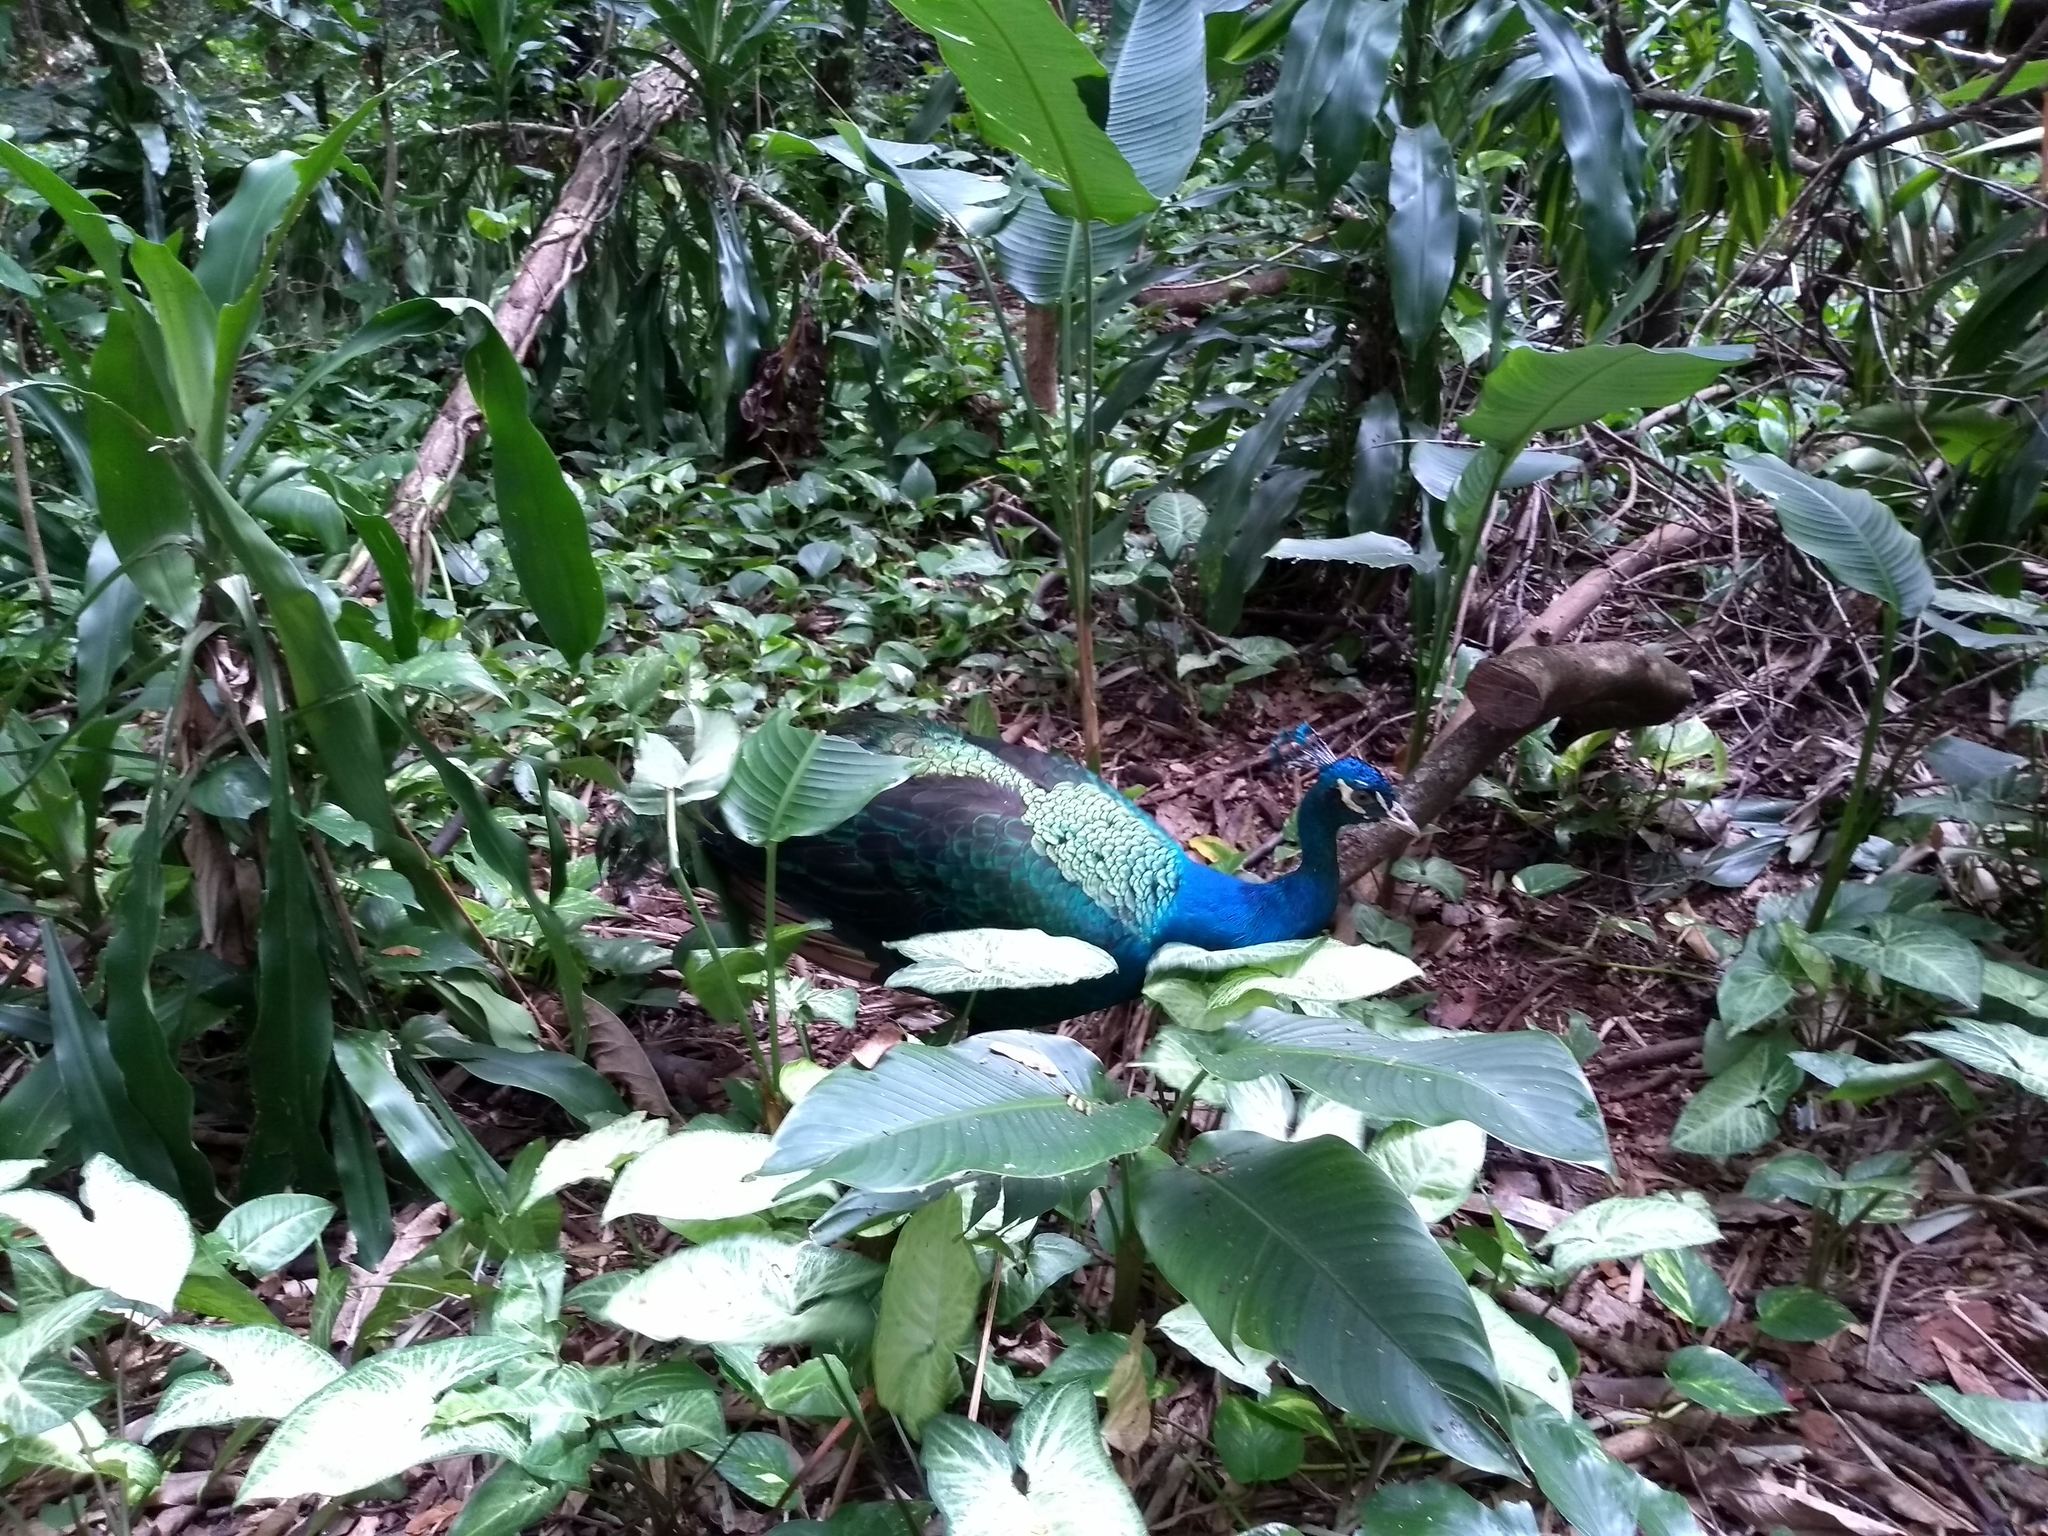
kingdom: Animalia
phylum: Chordata
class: Aves
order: Galliformes
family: Phasianidae
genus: Pavo
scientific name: Pavo cristatus
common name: Indian peafowl
